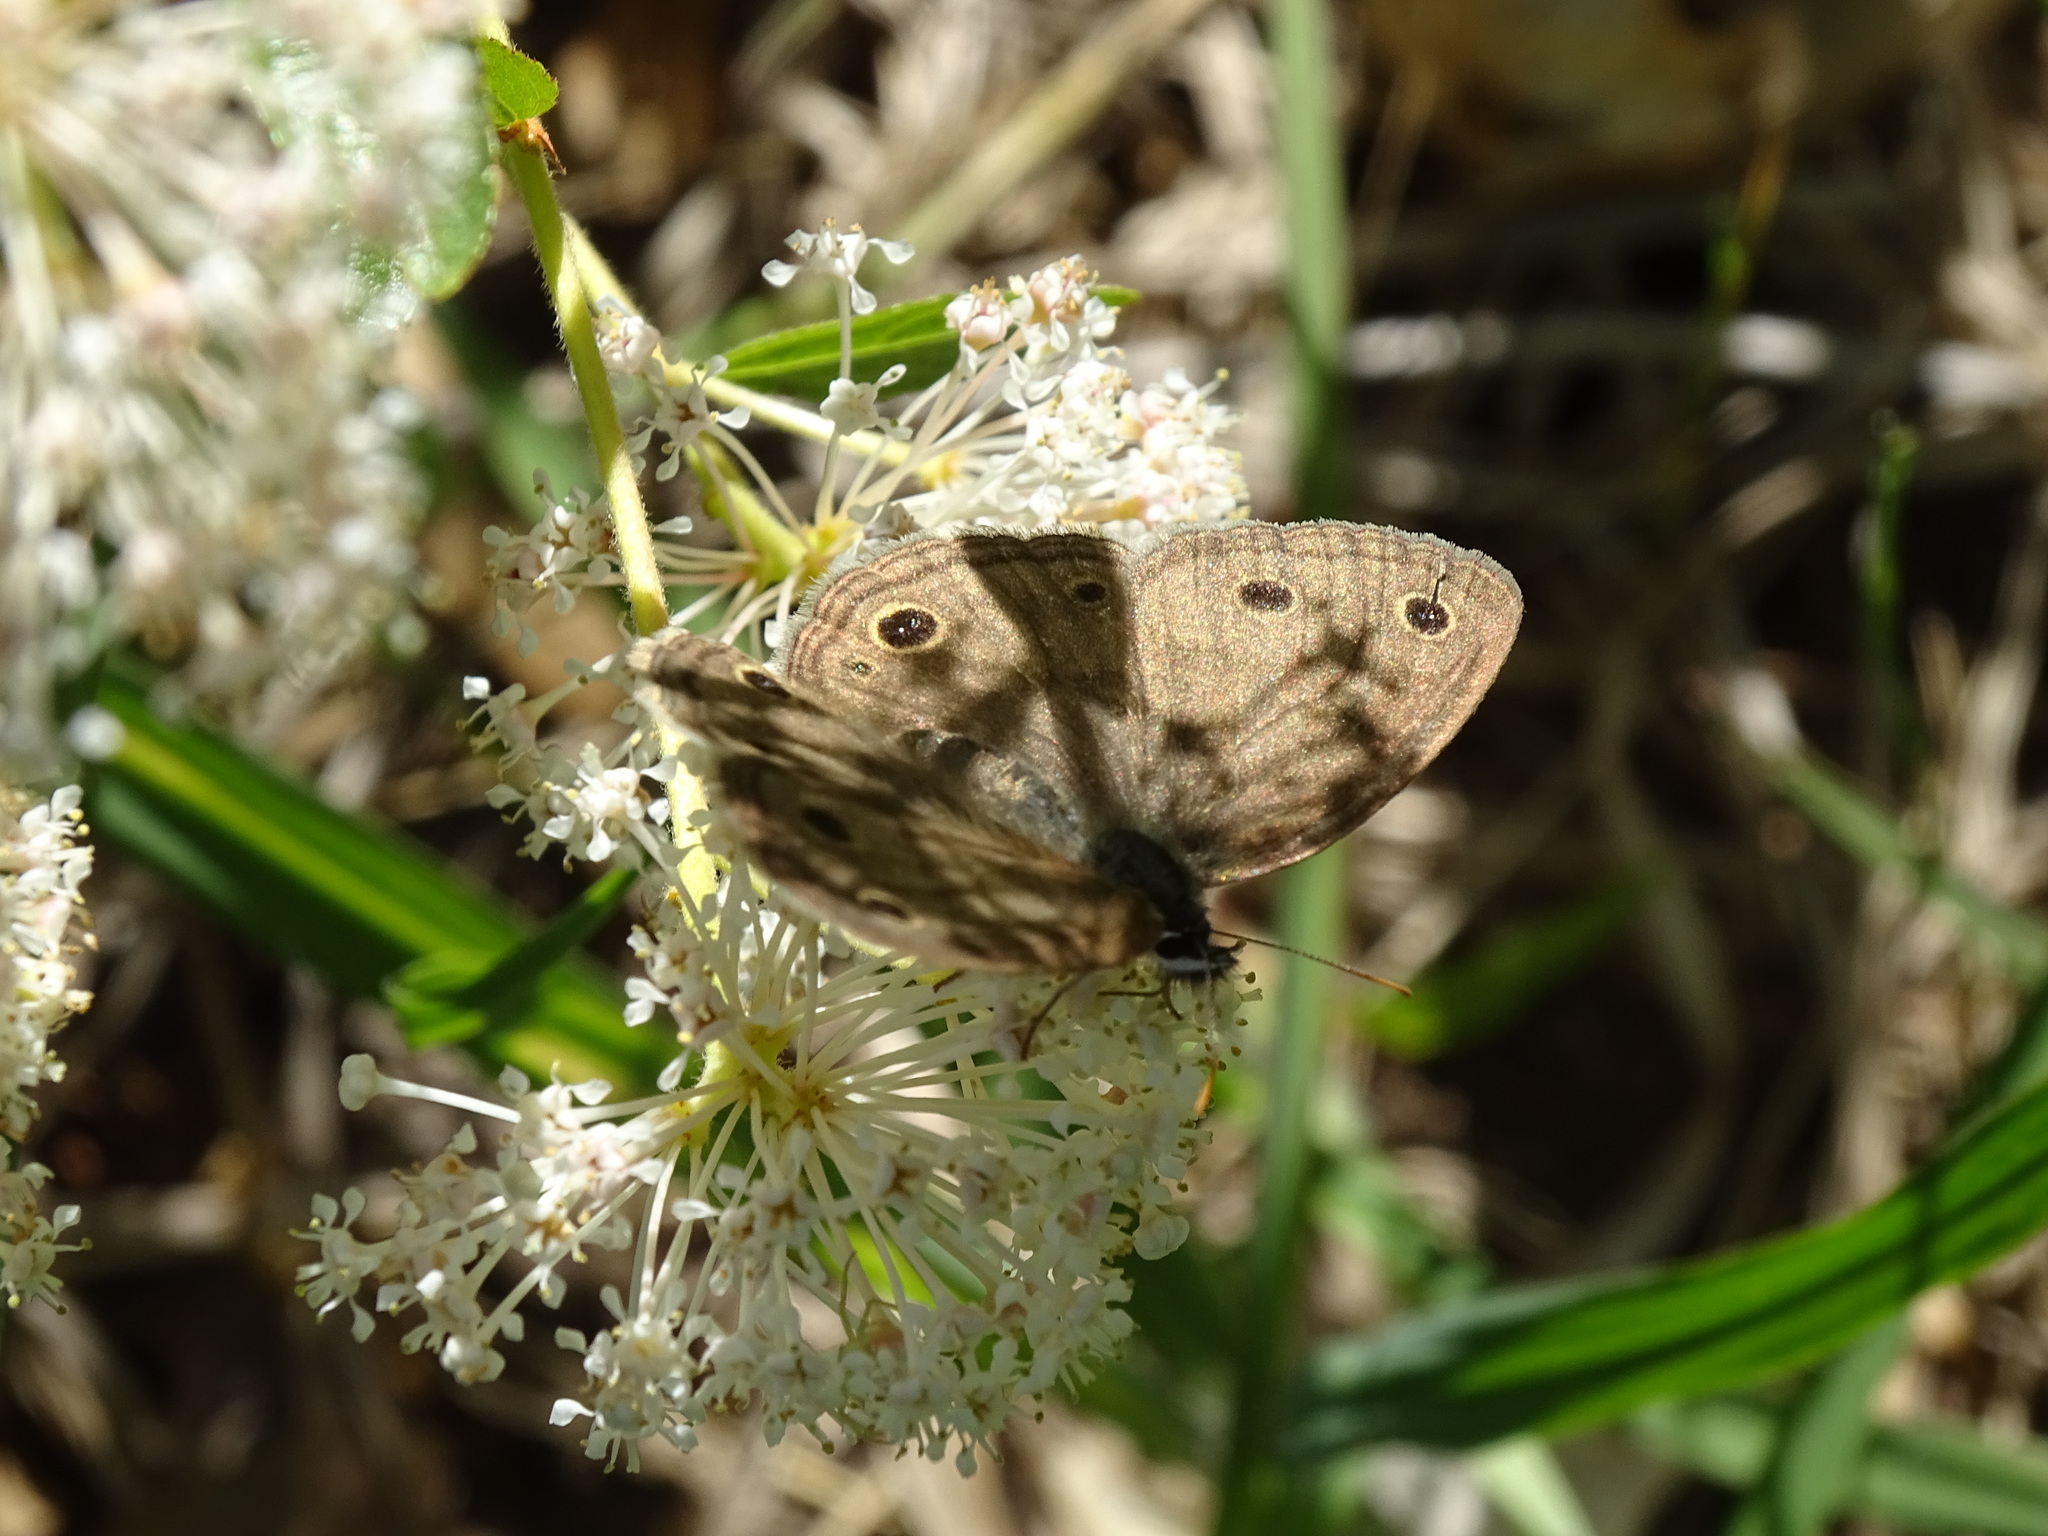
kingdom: Animalia
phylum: Arthropoda
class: Insecta
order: Lepidoptera
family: Nymphalidae
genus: Euptychia
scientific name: Euptychia cymela
